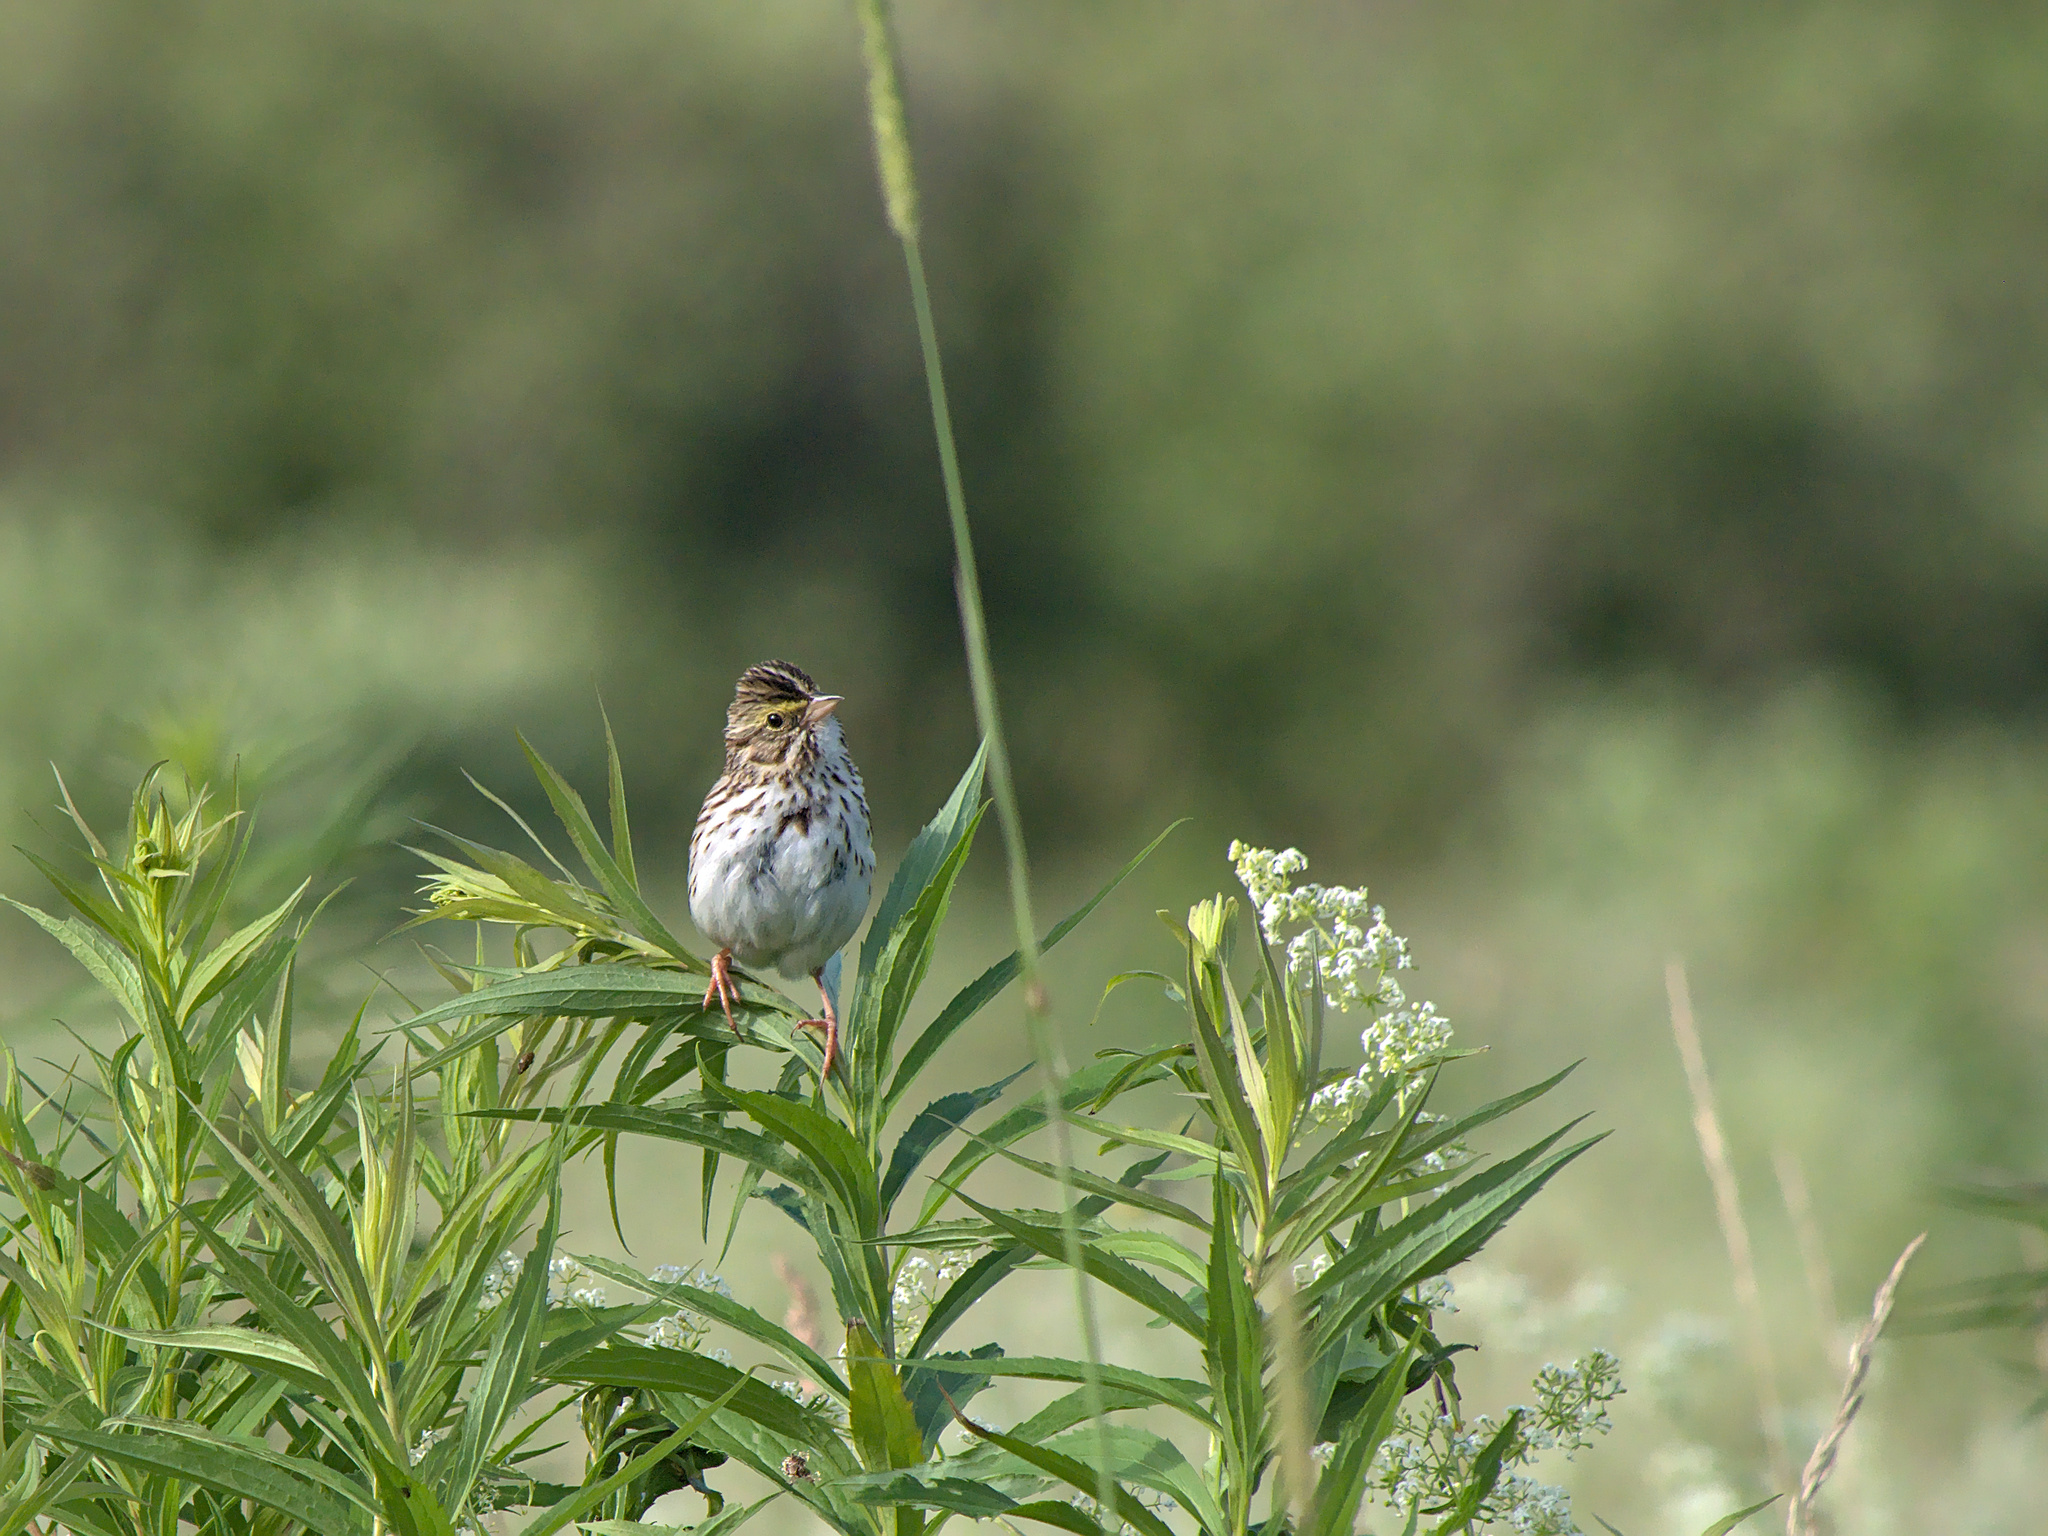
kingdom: Animalia
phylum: Chordata
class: Aves
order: Passeriformes
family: Passerellidae
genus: Passerculus
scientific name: Passerculus sandwichensis
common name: Savannah sparrow
